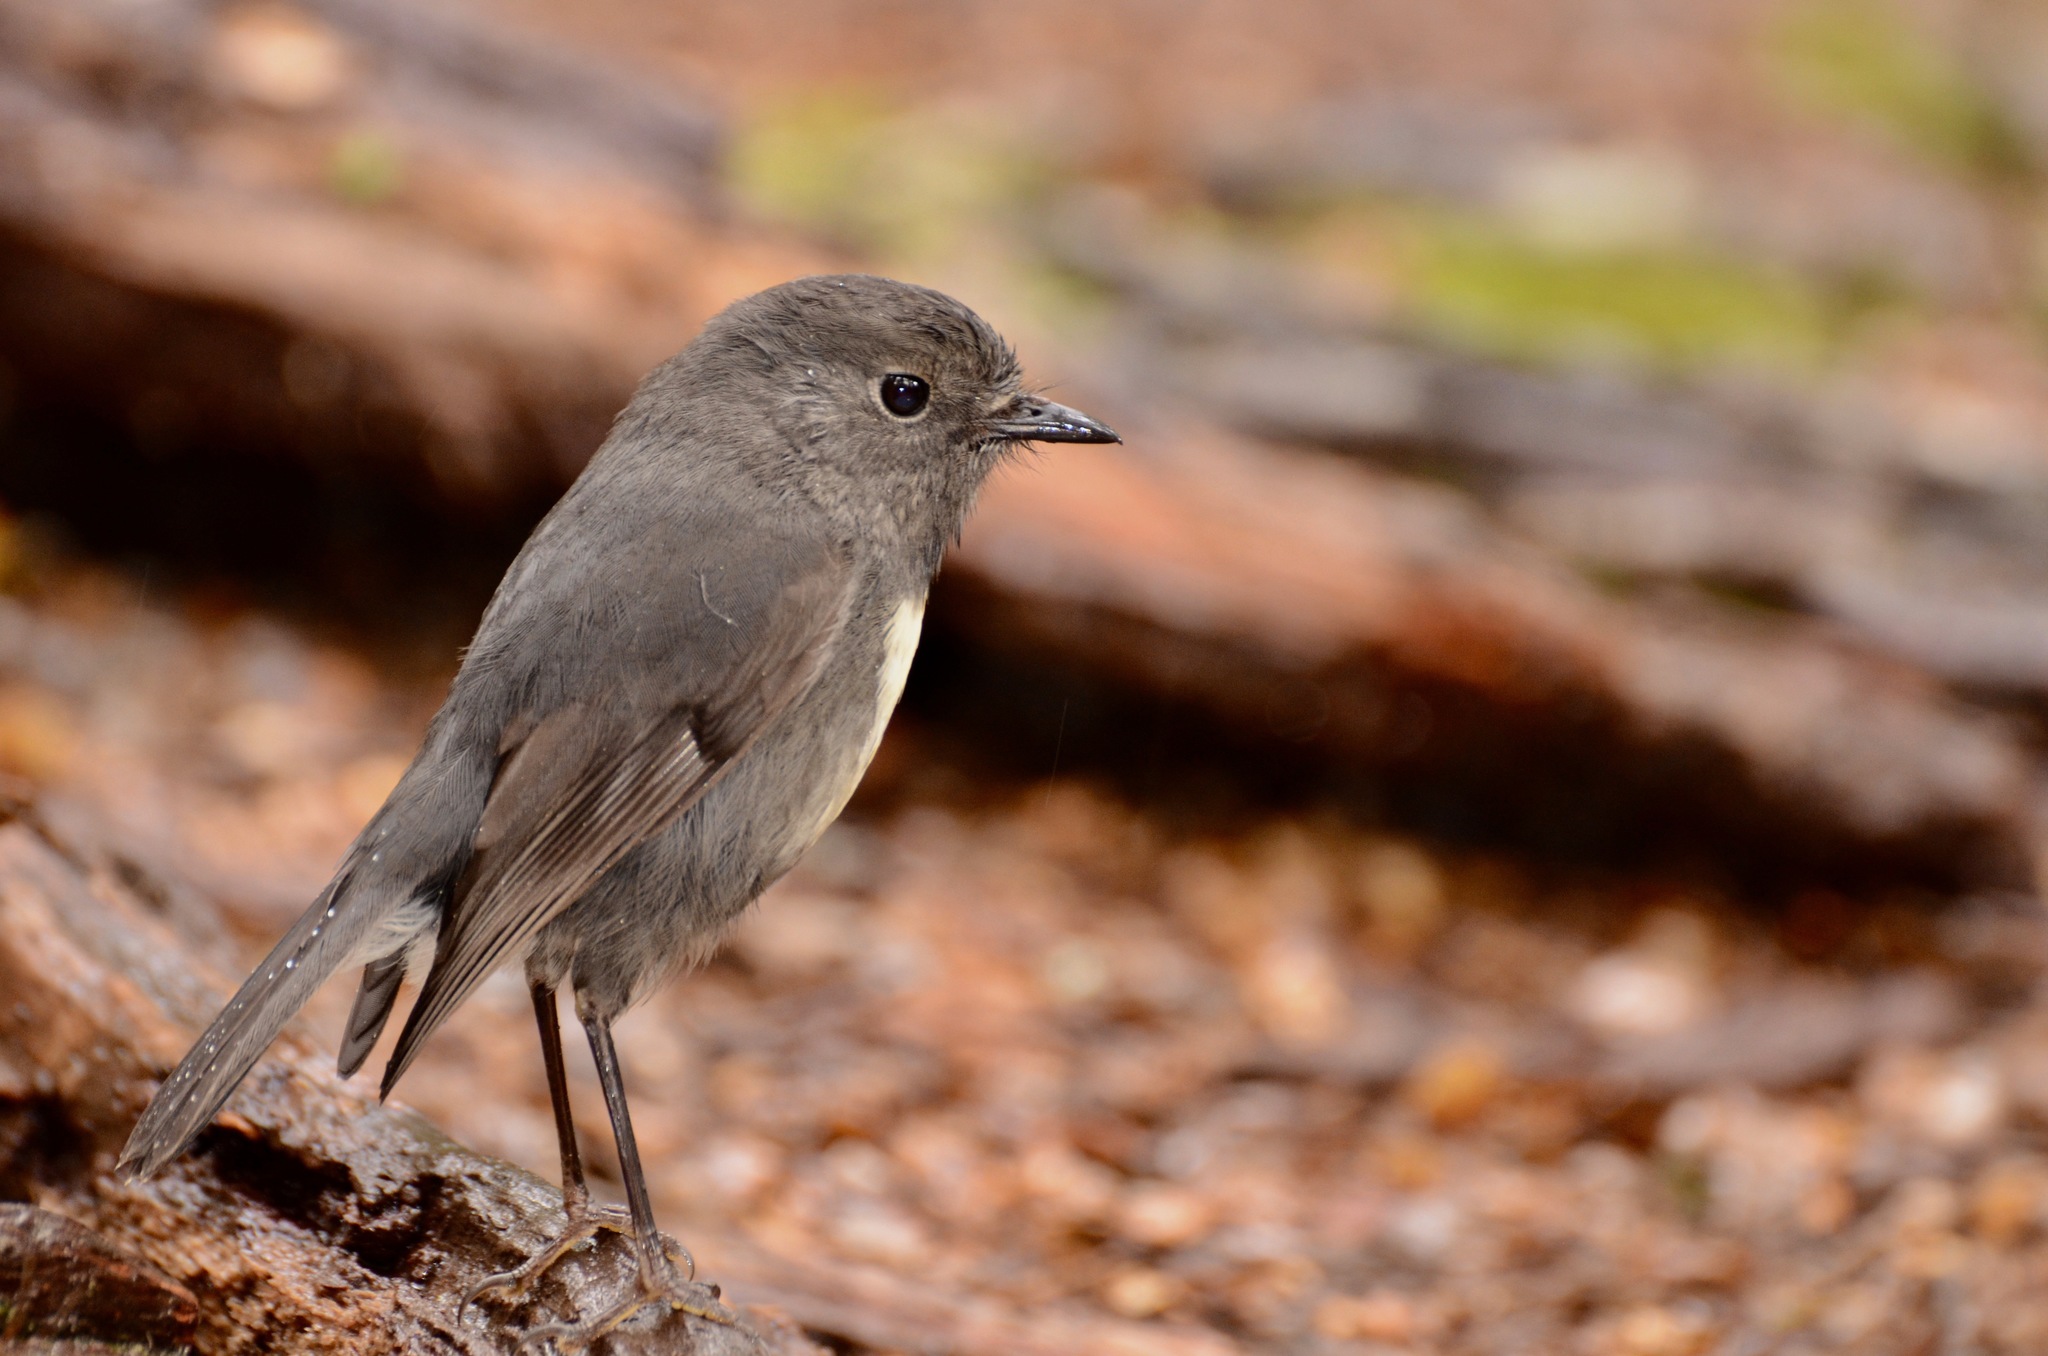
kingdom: Animalia
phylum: Chordata
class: Aves
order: Passeriformes
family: Petroicidae
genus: Petroica
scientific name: Petroica australis
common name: New zealand robin
